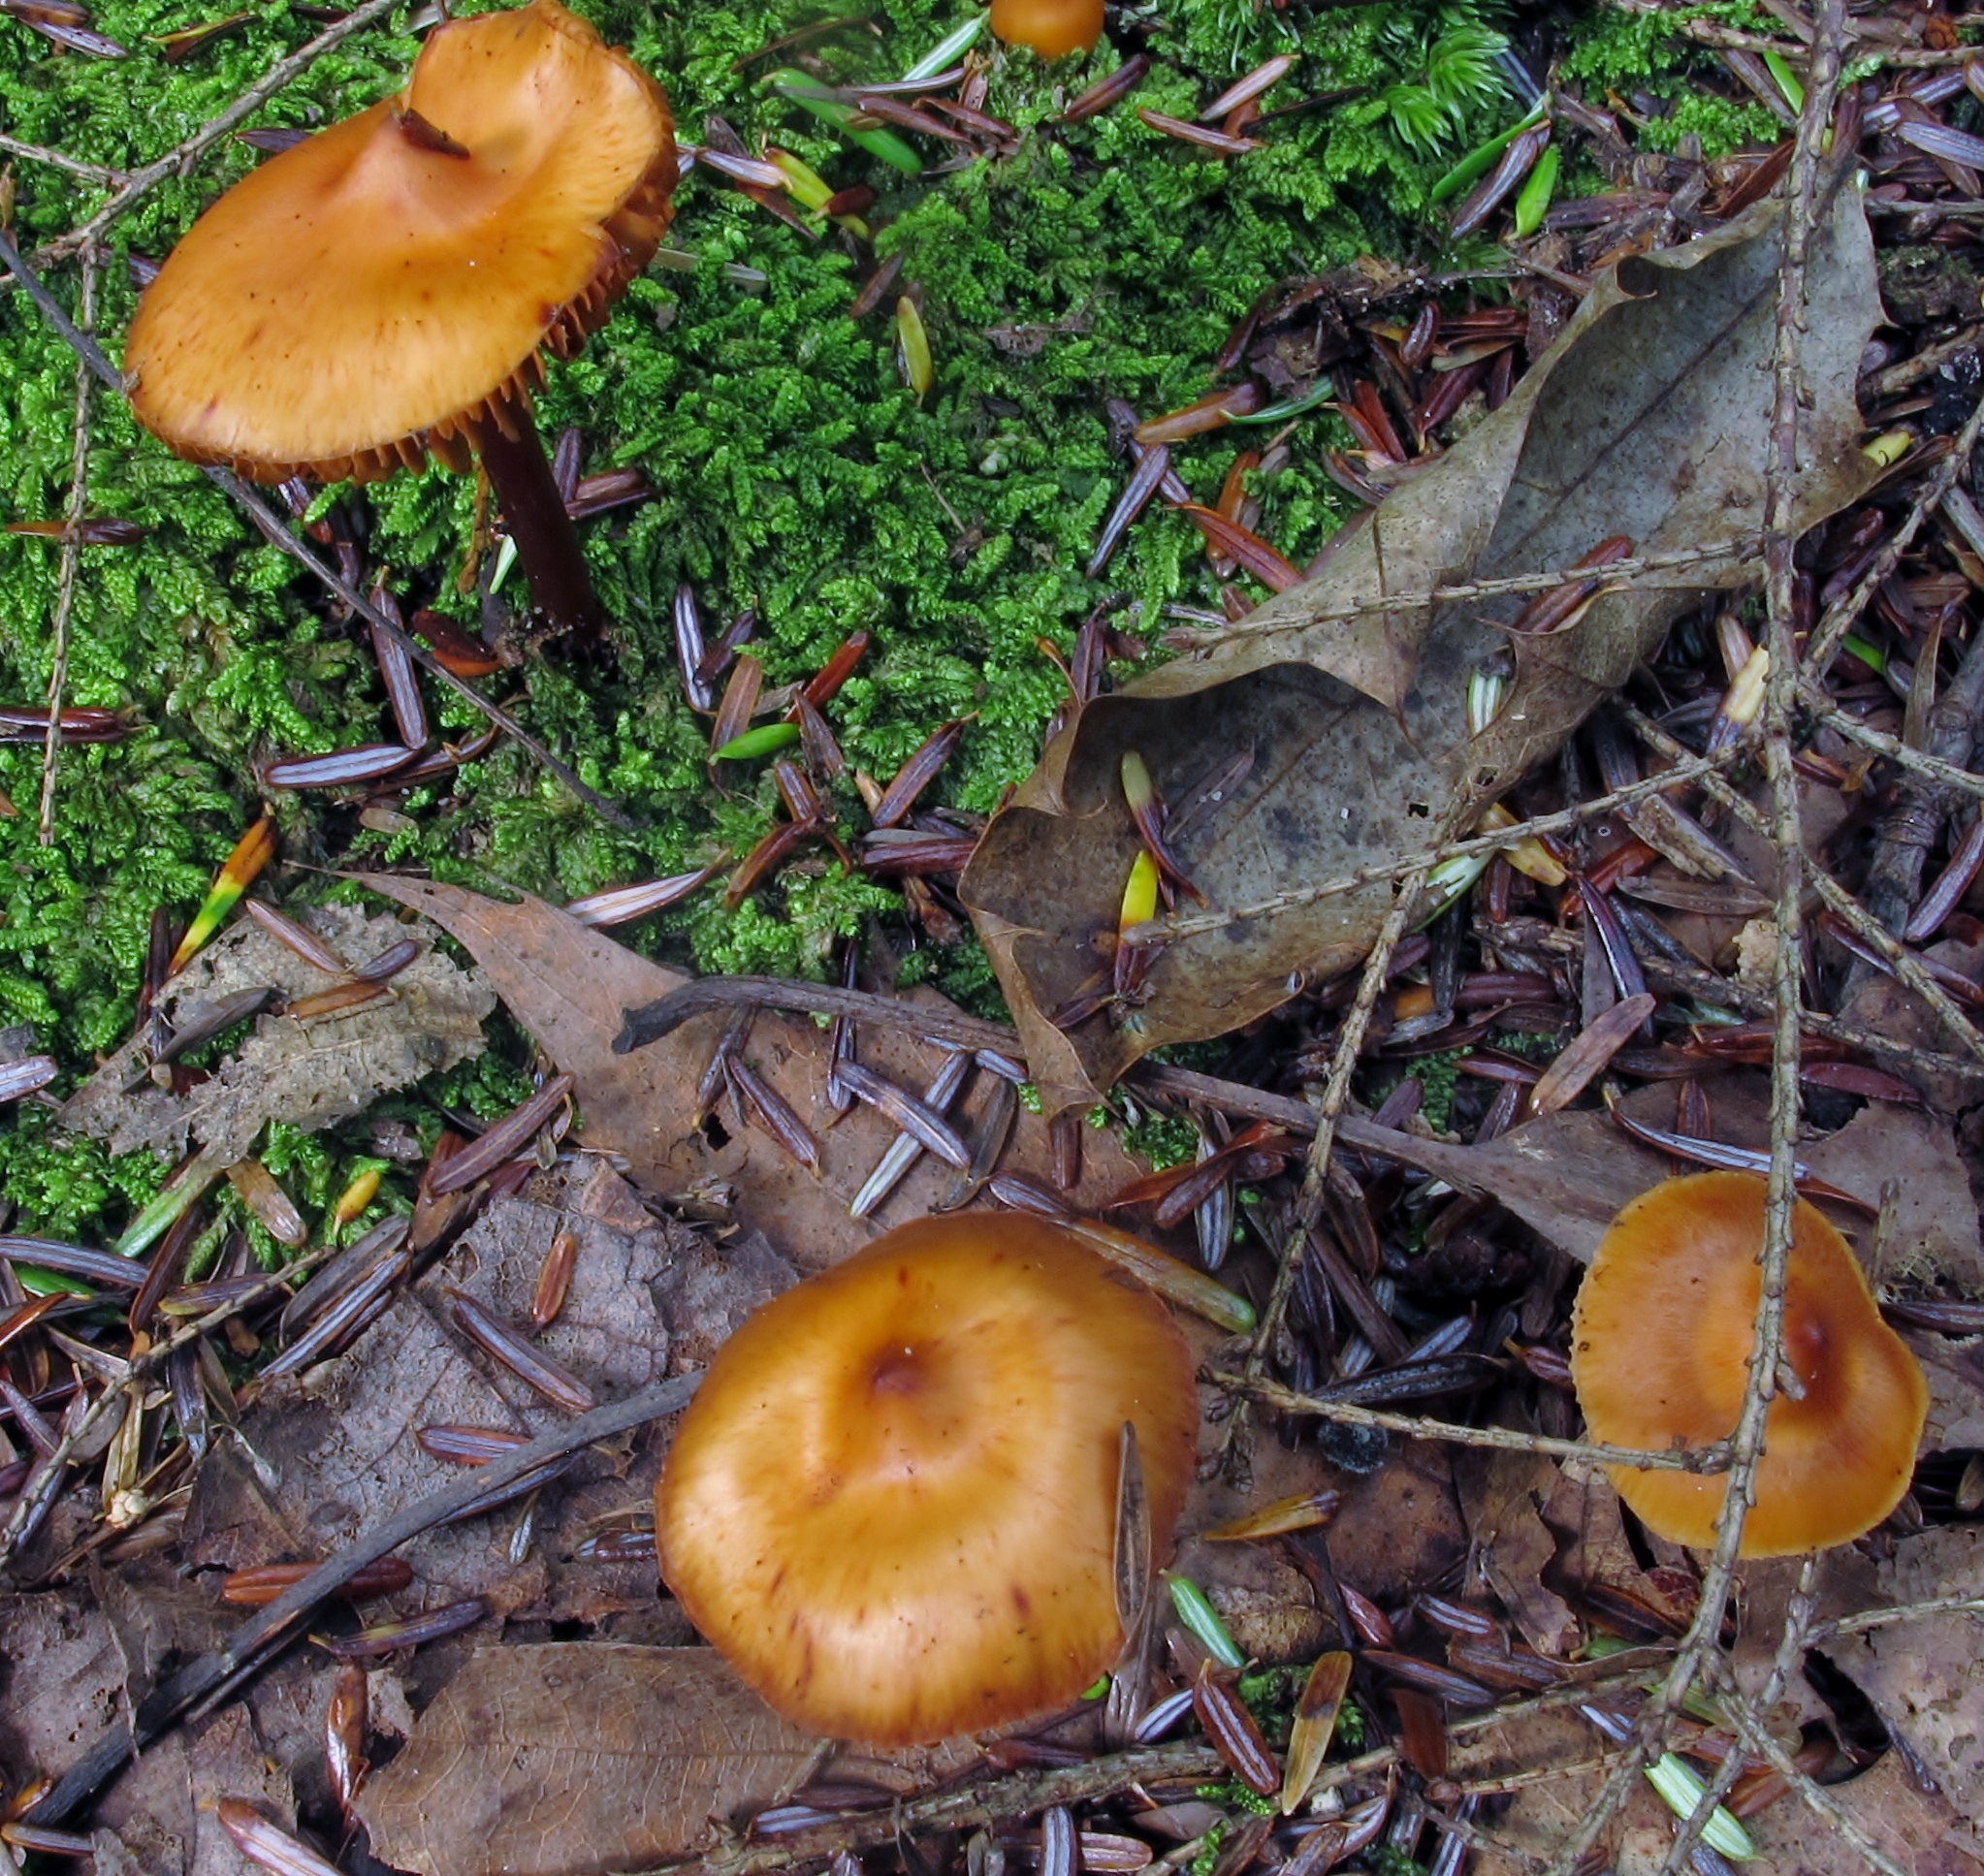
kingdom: Fungi
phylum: Basidiomycota
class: Agaricomycetes
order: Agaricales
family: Hymenogastraceae
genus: Phaeocollybia
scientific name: Phaeocollybia christinae
